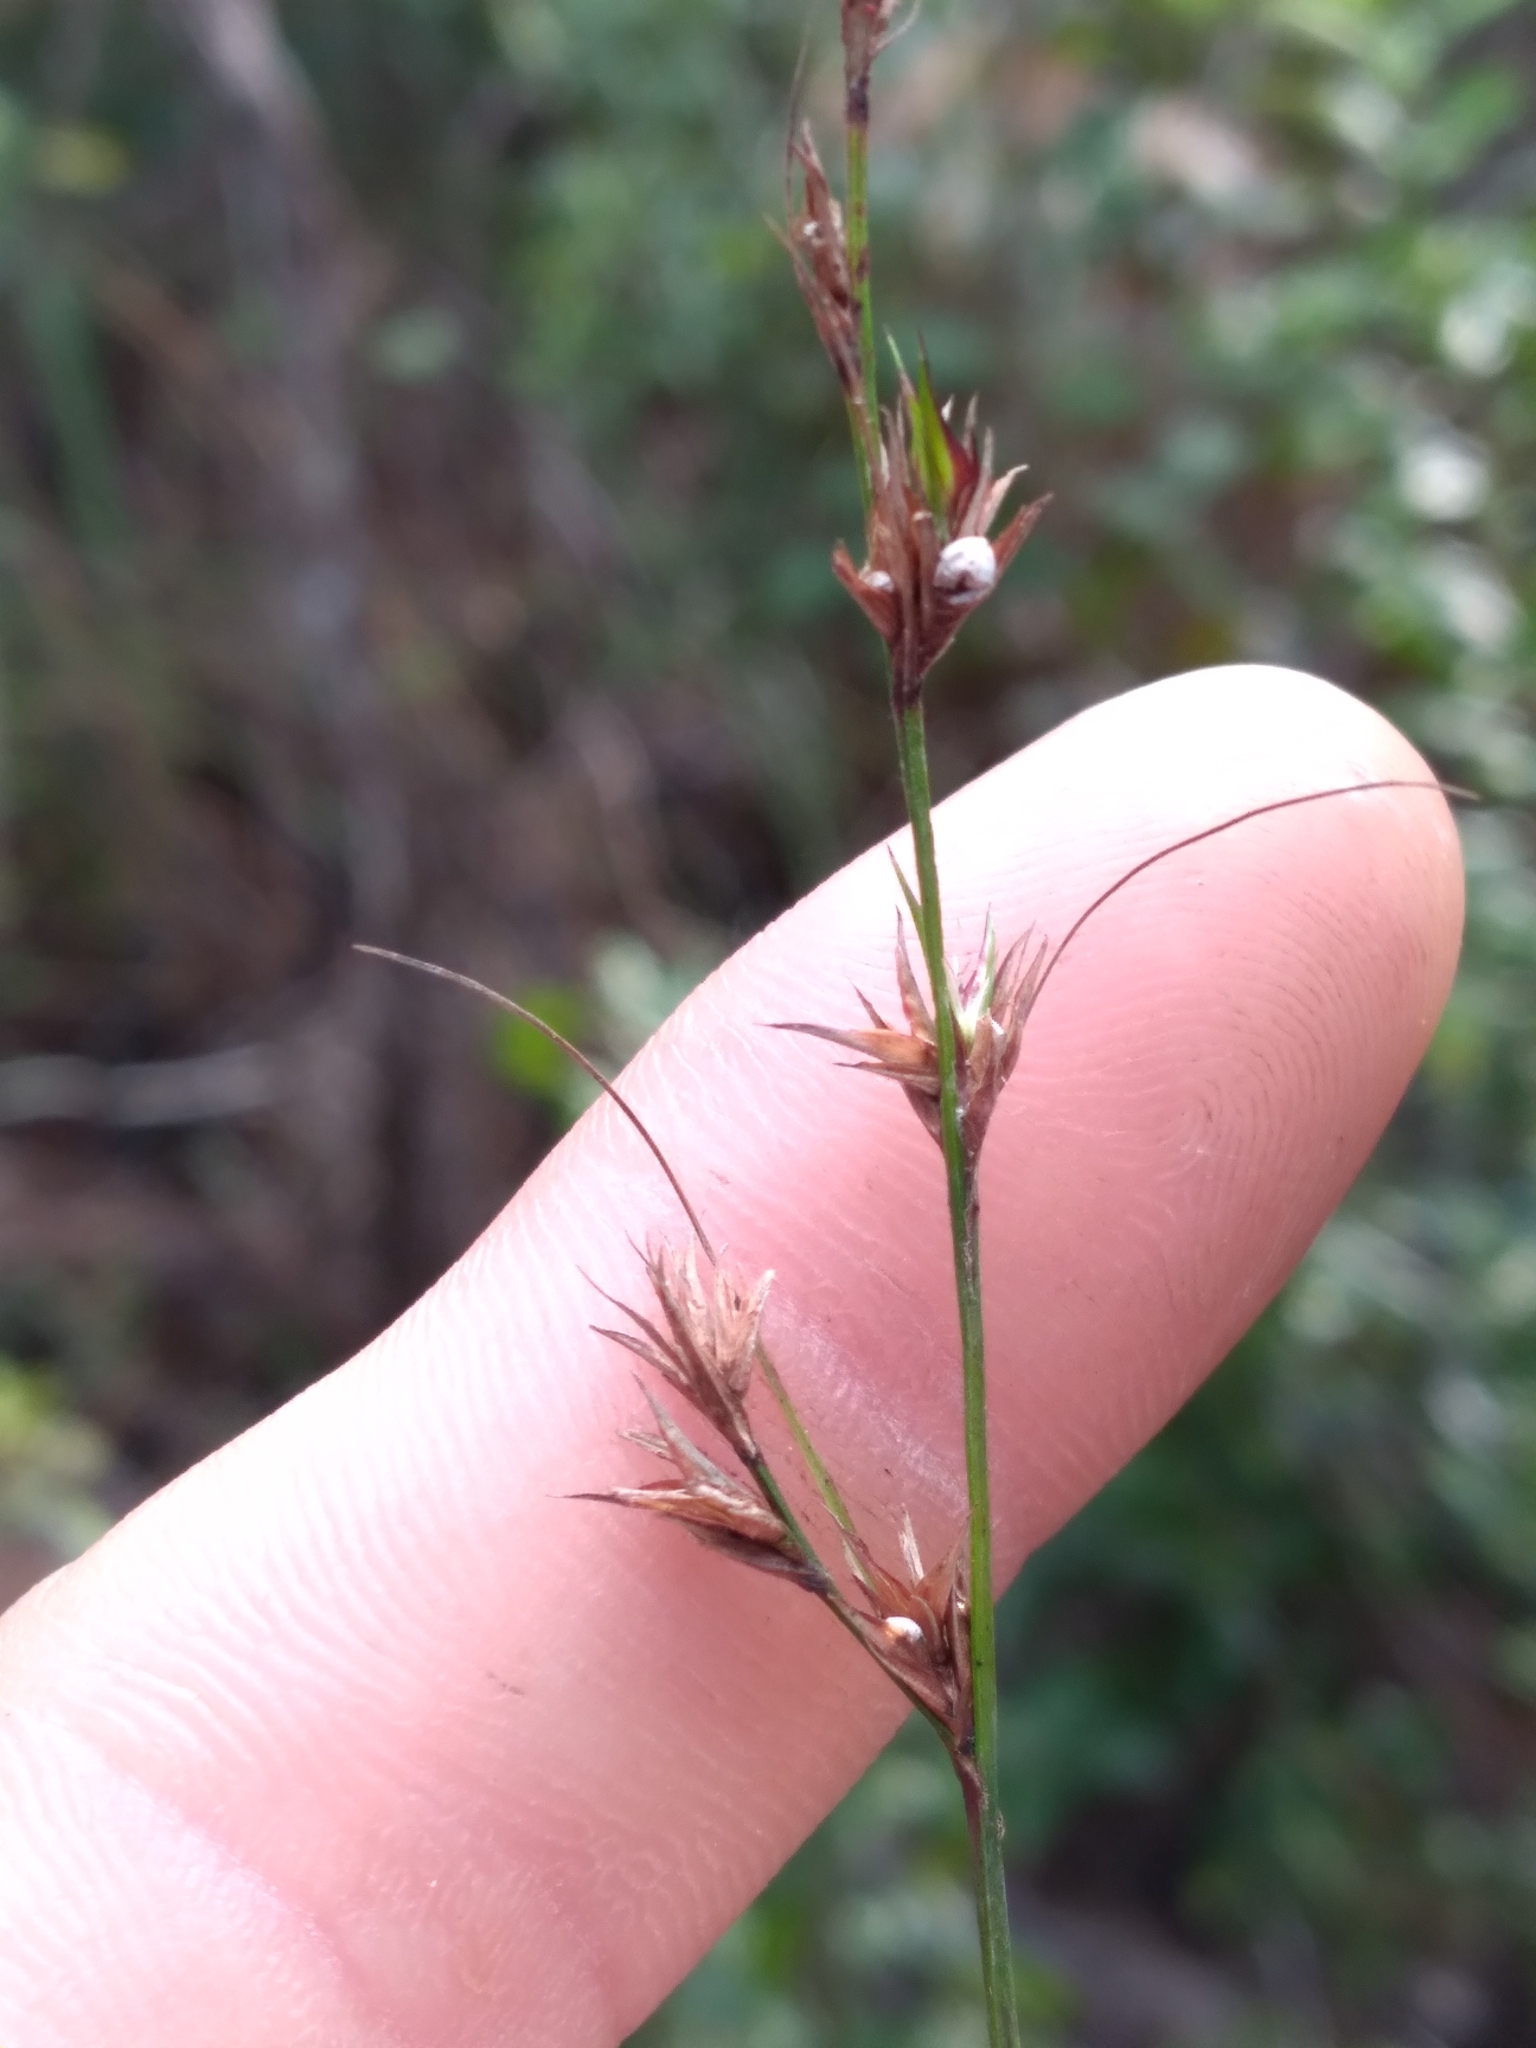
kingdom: Plantae
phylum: Tracheophyta
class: Liliopsida
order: Poales
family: Cyperaceae
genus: Scleria
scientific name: Scleria lithosperma
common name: Florida keys nut-rush
